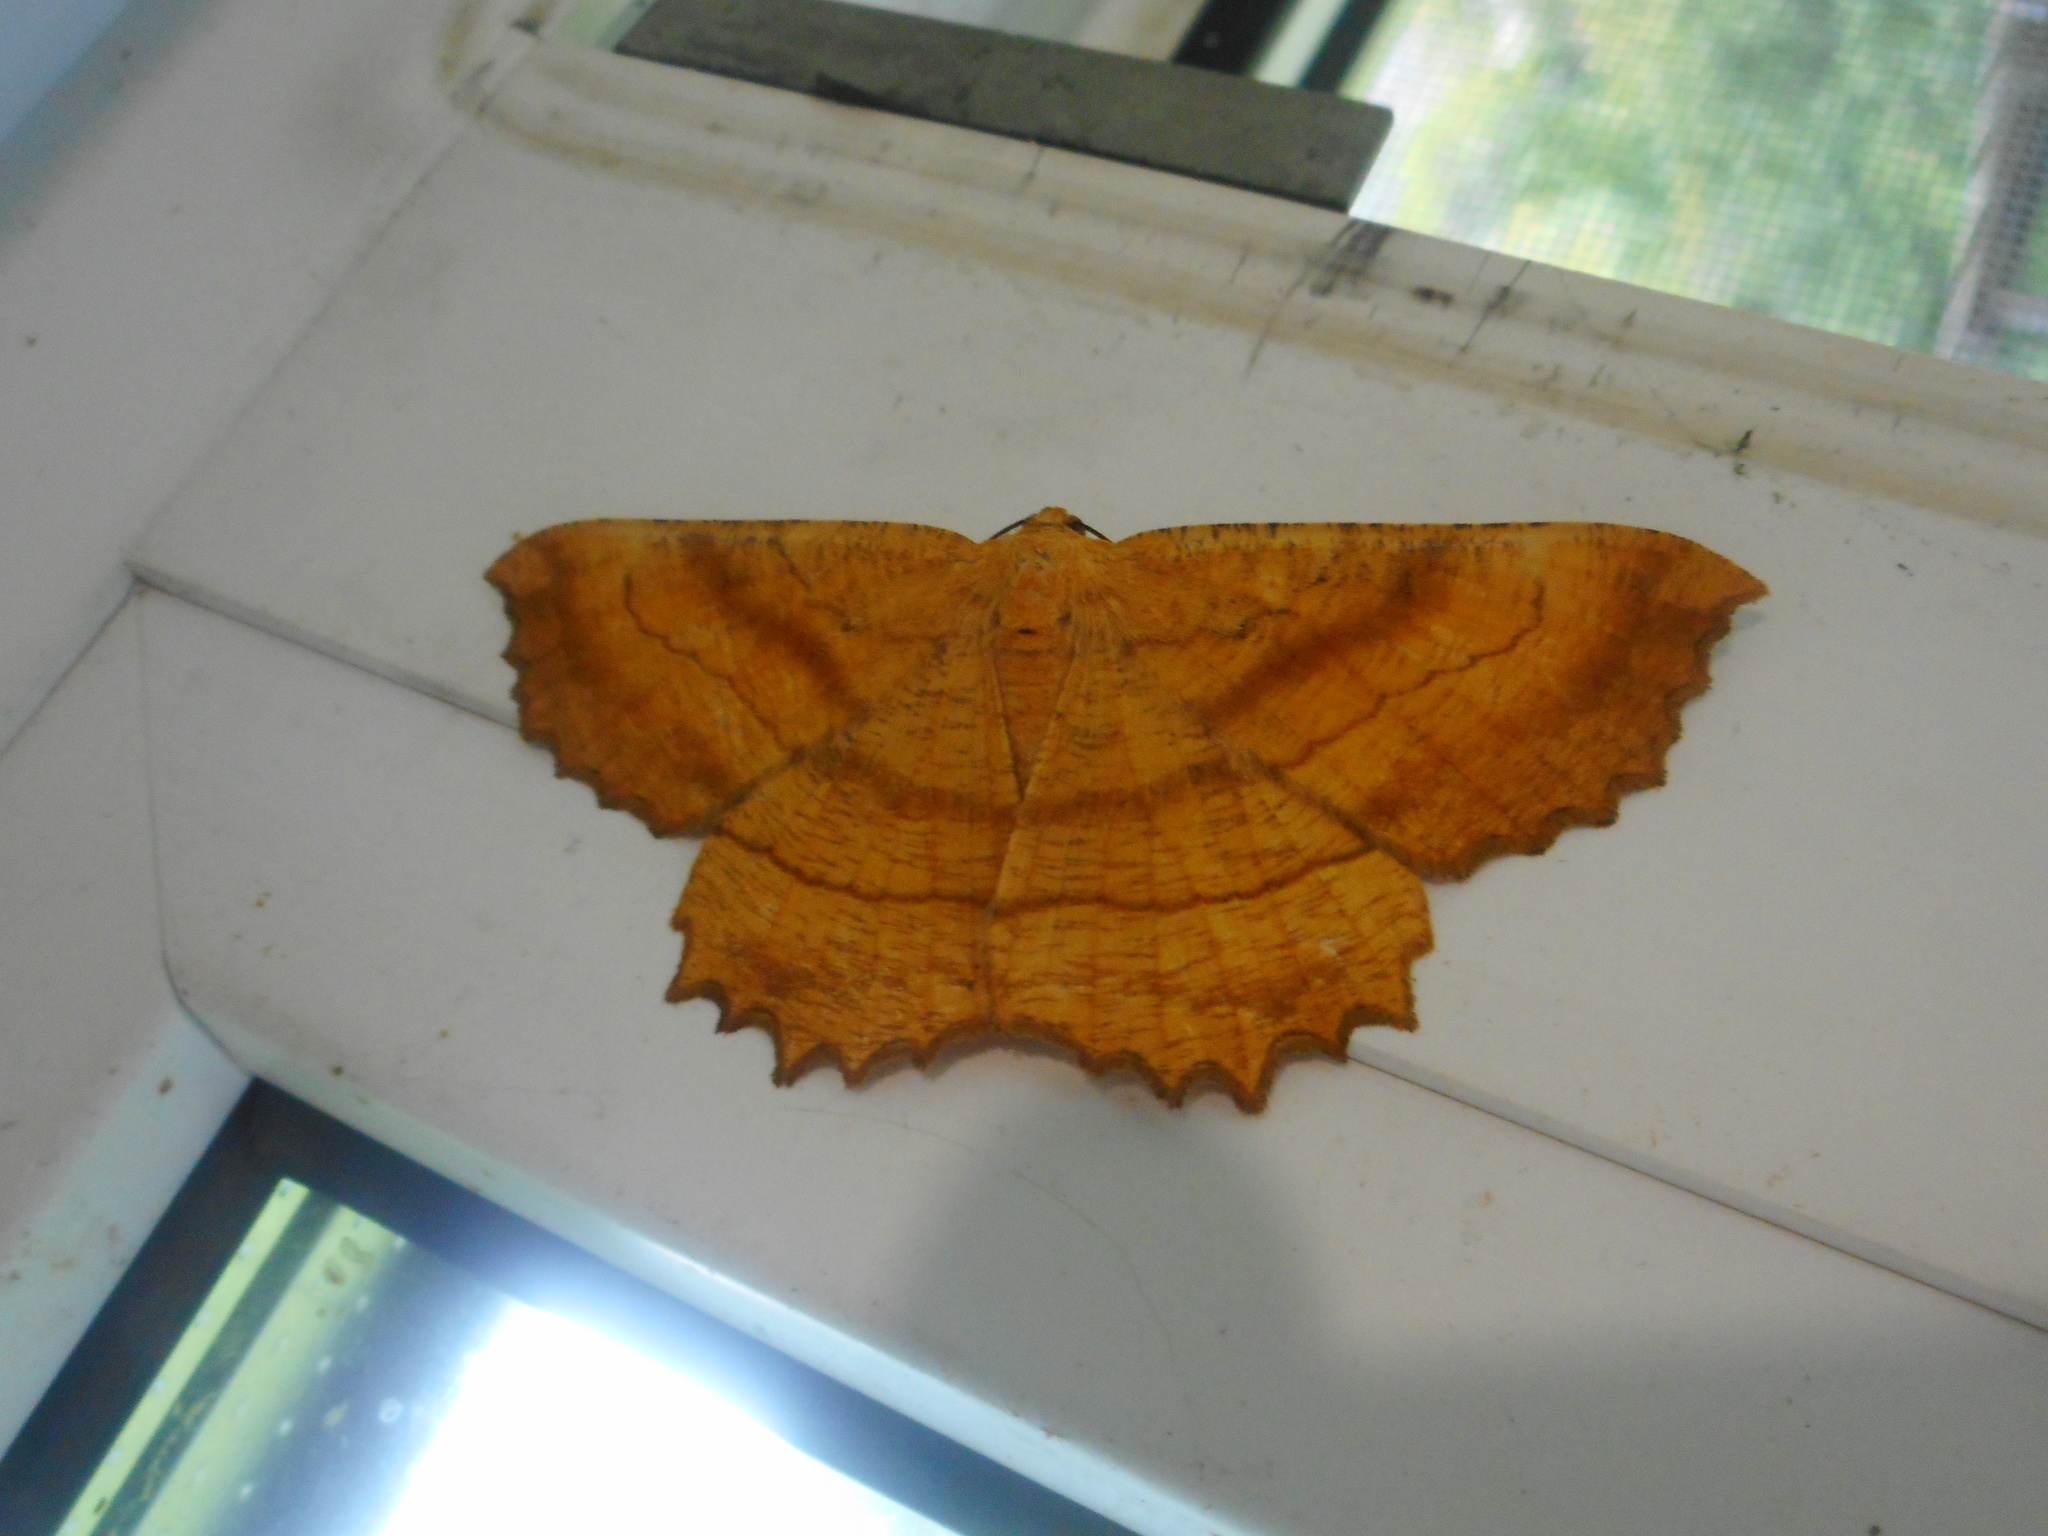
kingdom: Animalia
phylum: Arthropoda
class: Insecta
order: Lepidoptera
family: Geometridae
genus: Ctenognophos
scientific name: Ctenognophos grandinaria
